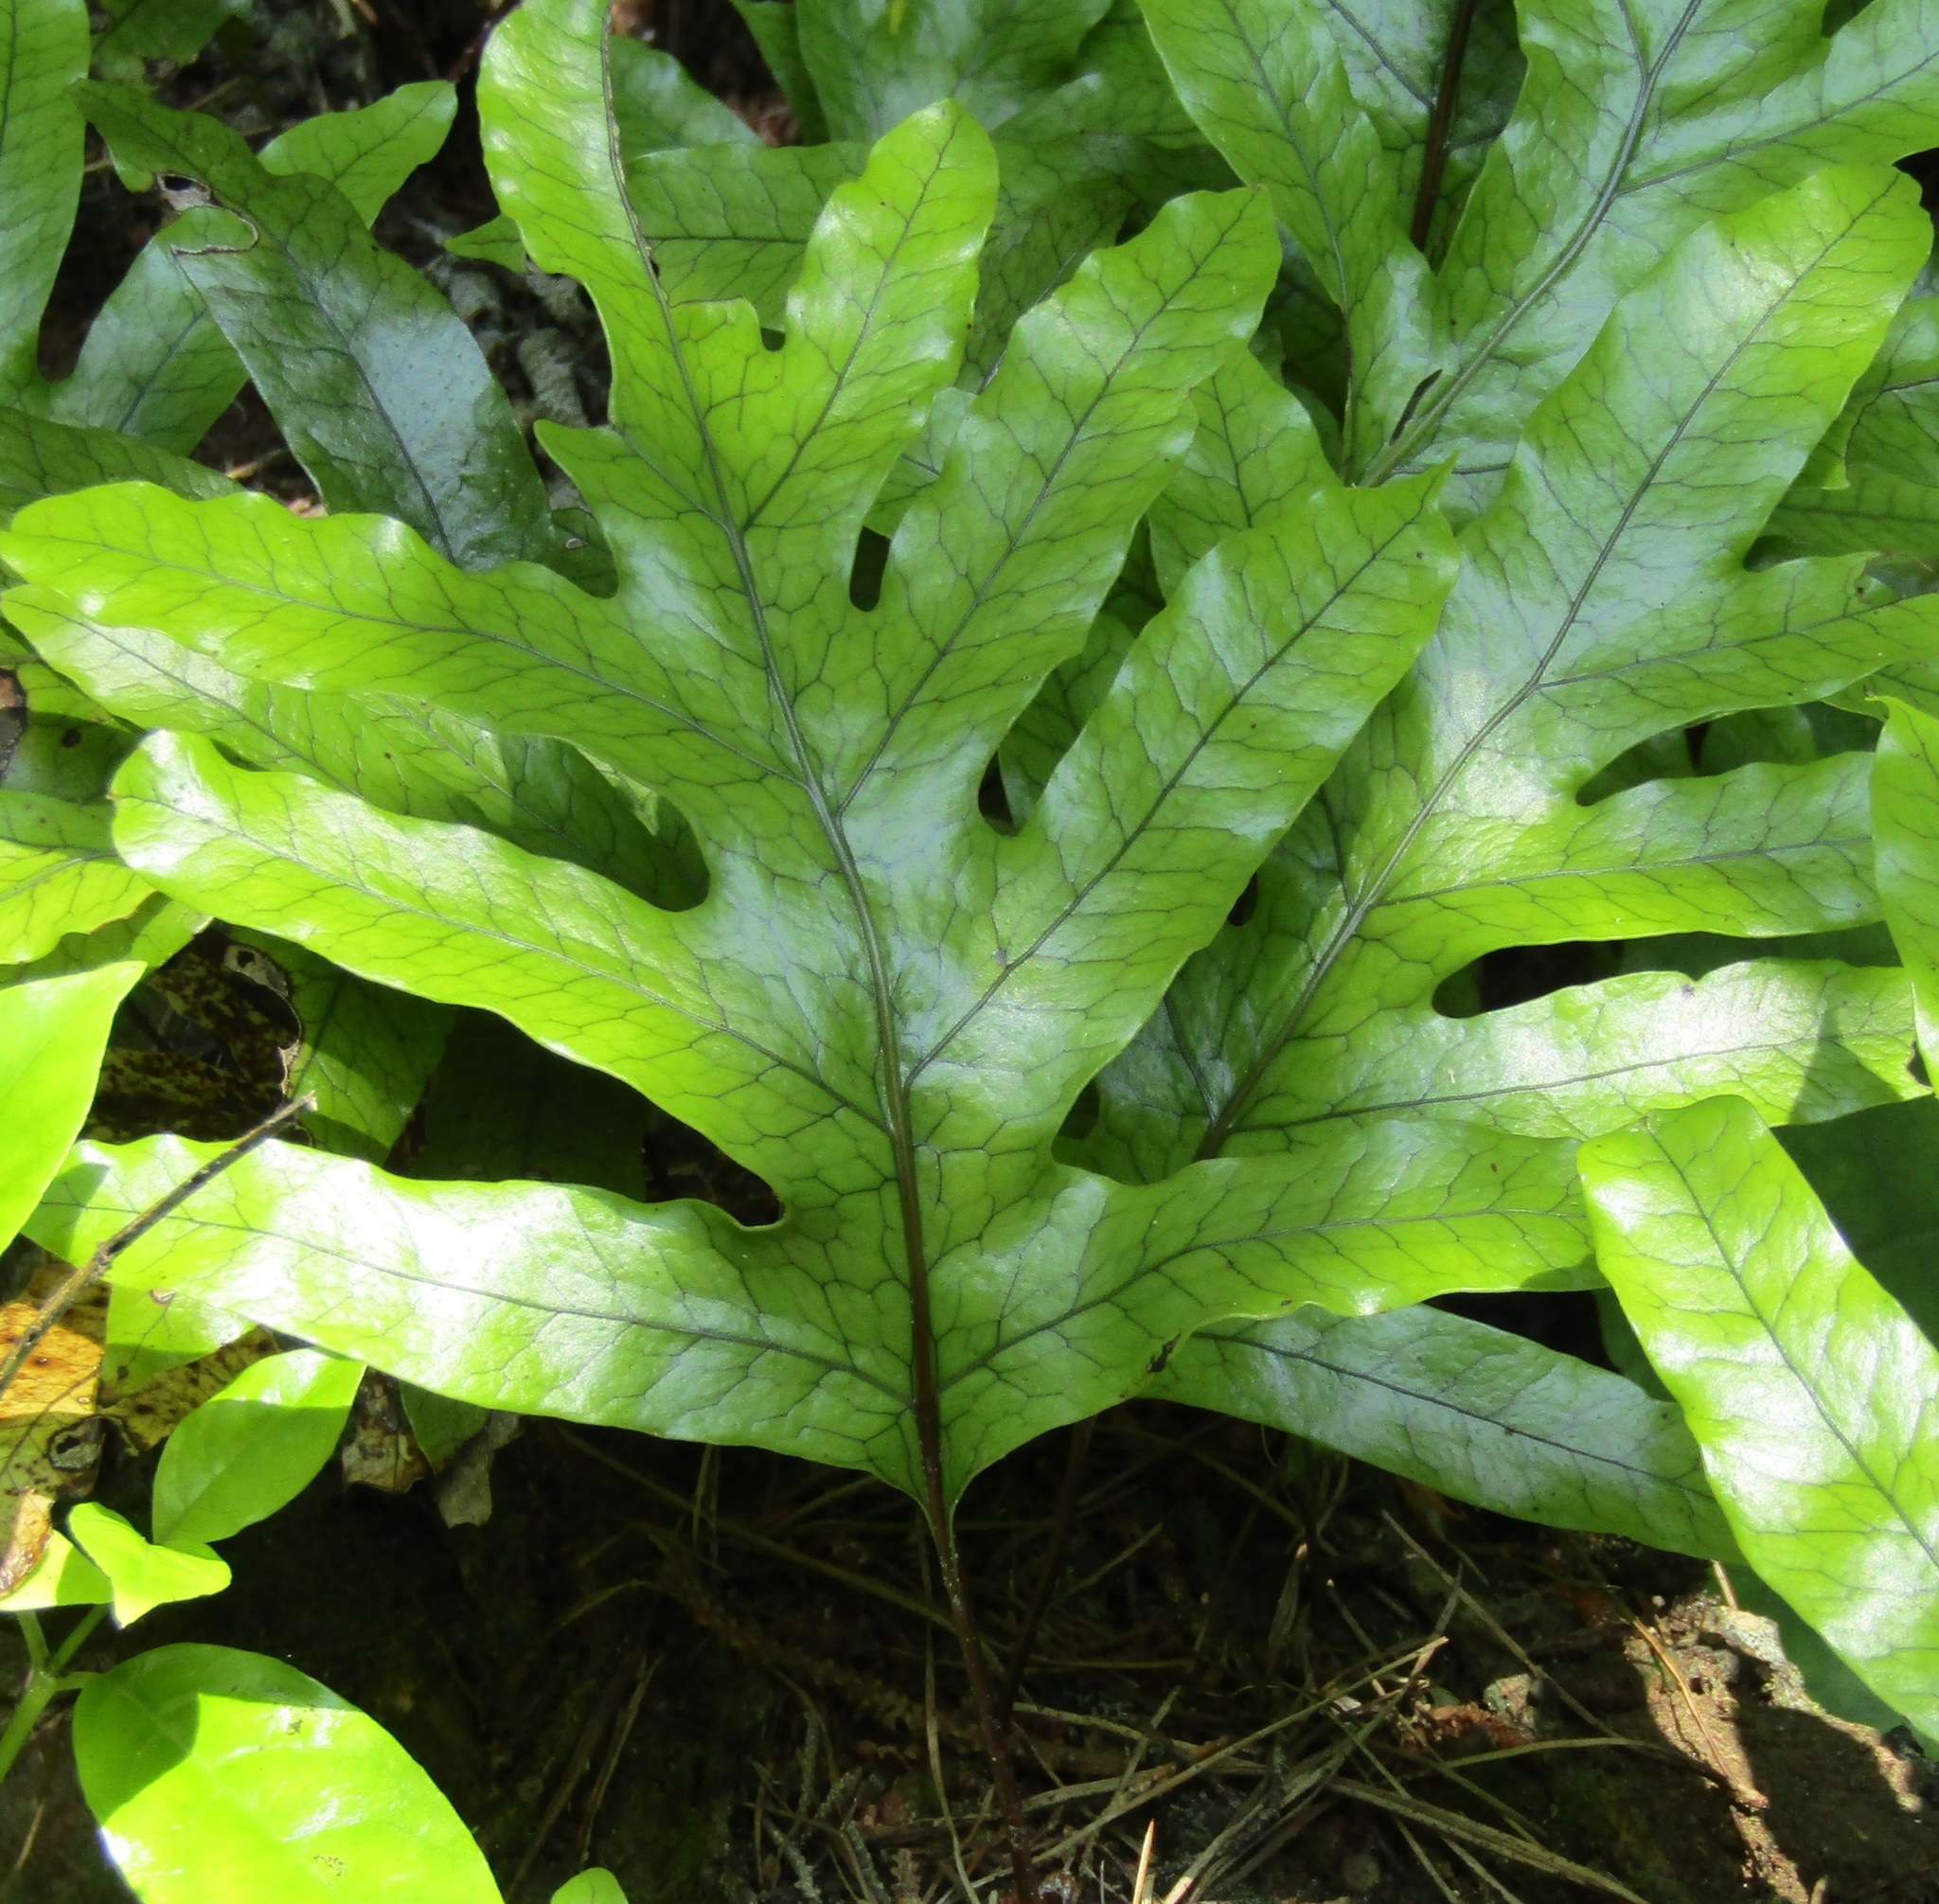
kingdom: Plantae
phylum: Tracheophyta
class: Polypodiopsida
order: Polypodiales
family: Polypodiaceae
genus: Lecanopteris
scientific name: Lecanopteris pustulata
